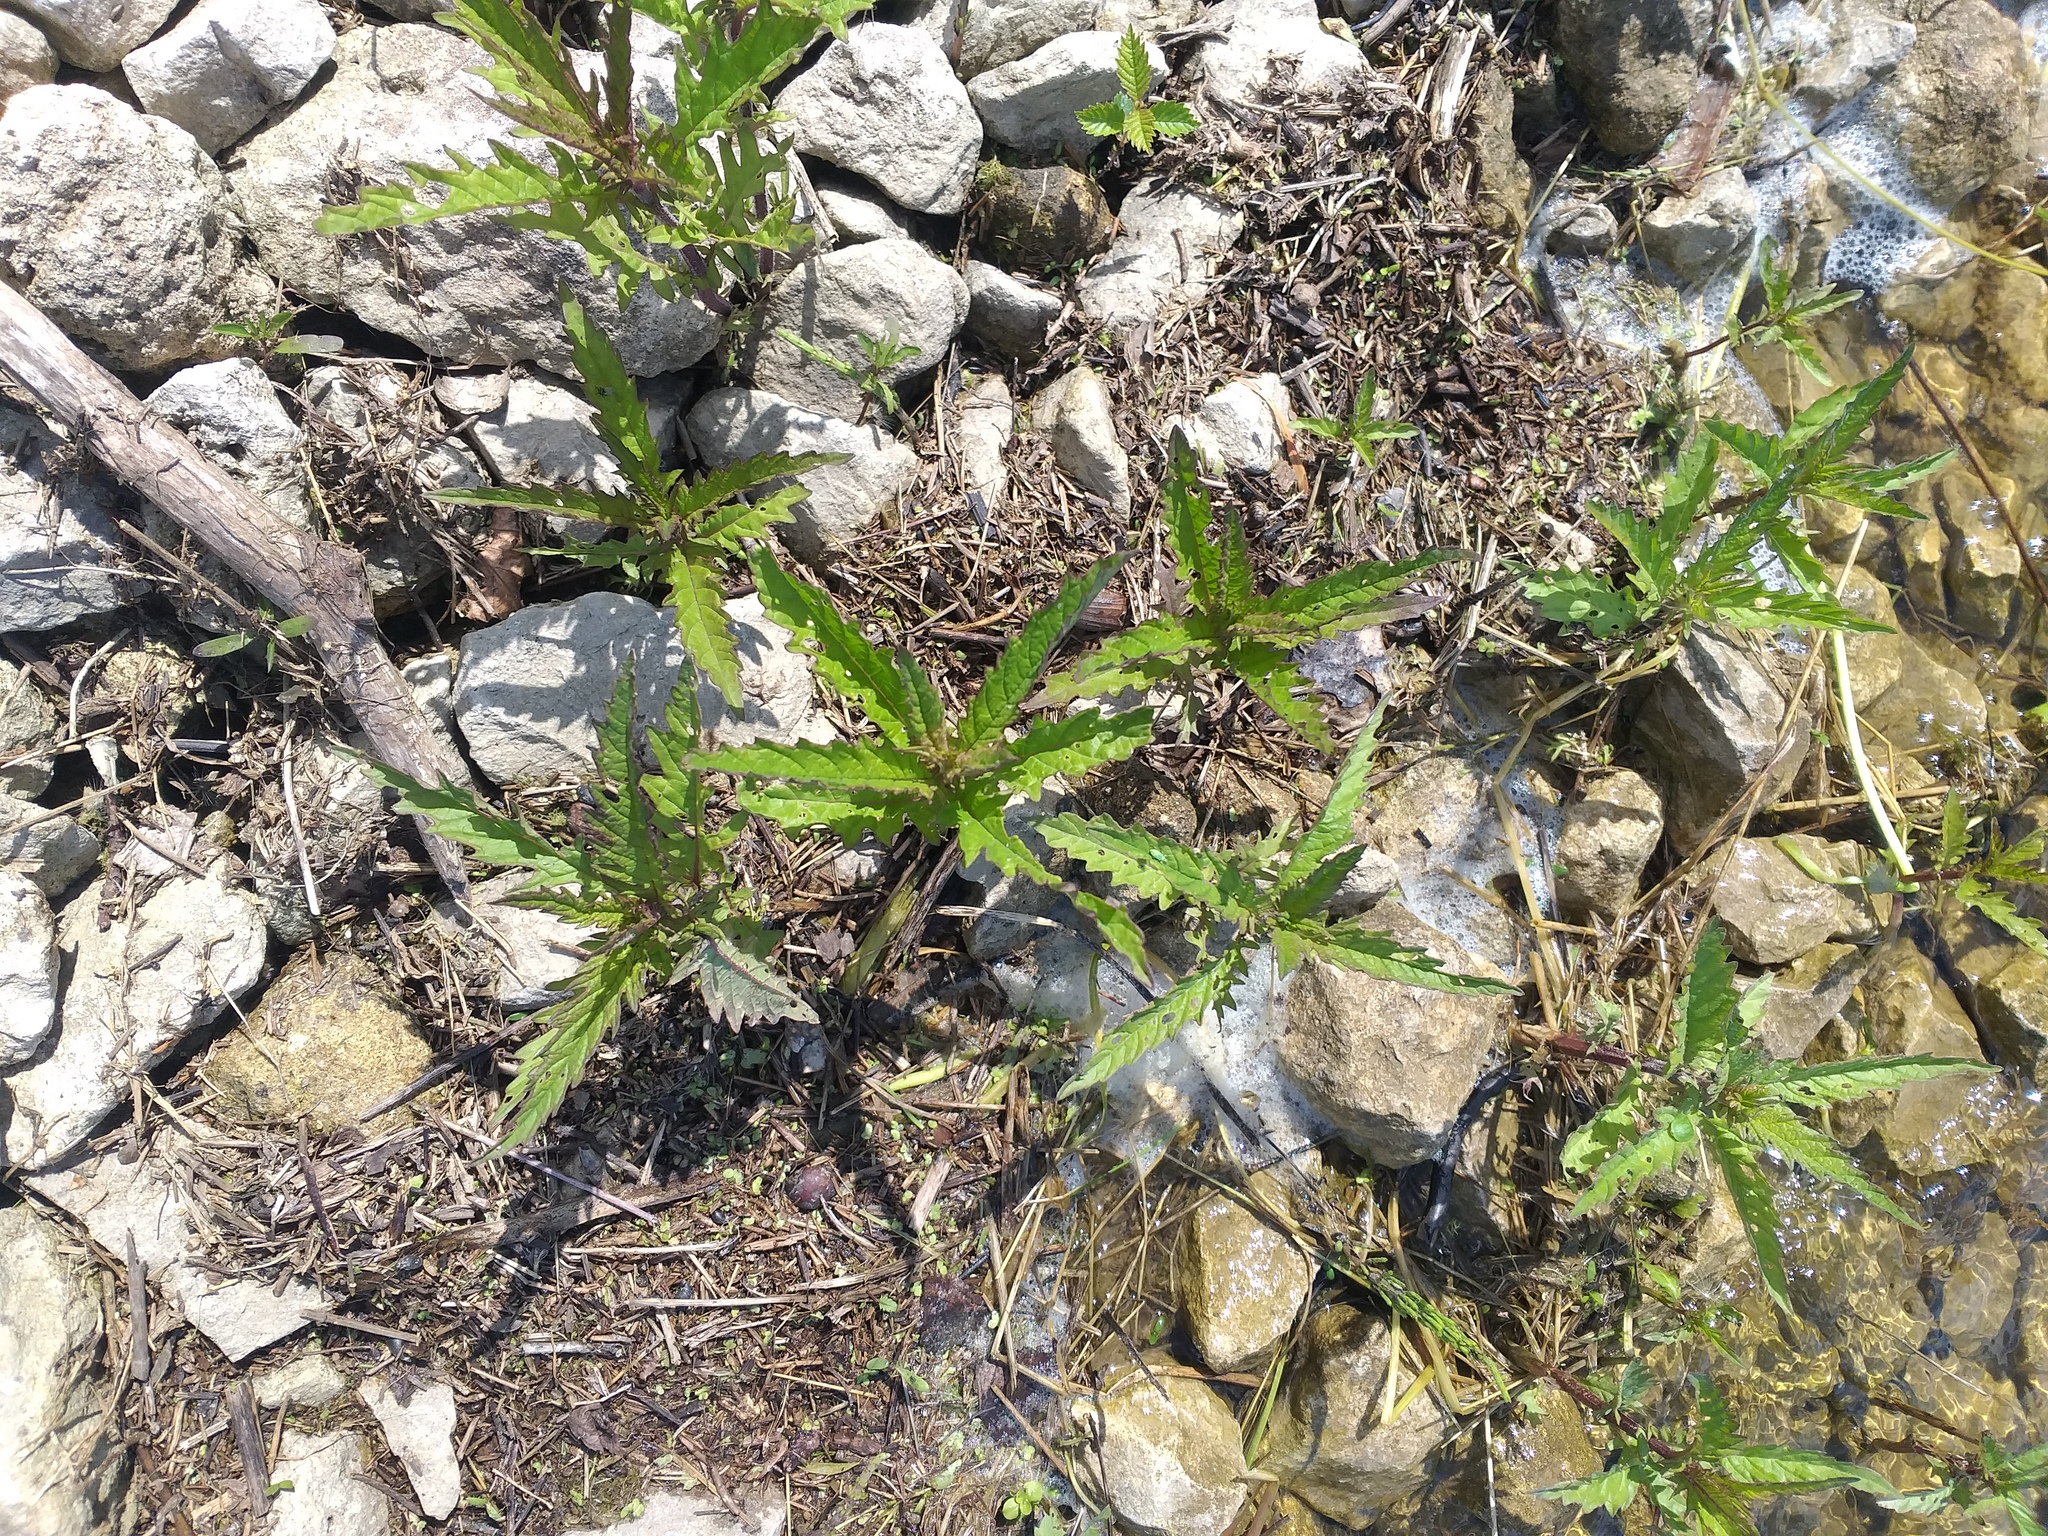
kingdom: Plantae
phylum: Tracheophyta
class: Magnoliopsida
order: Lamiales
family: Lamiaceae
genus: Lycopus
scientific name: Lycopus europaeus
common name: European bugleweed
